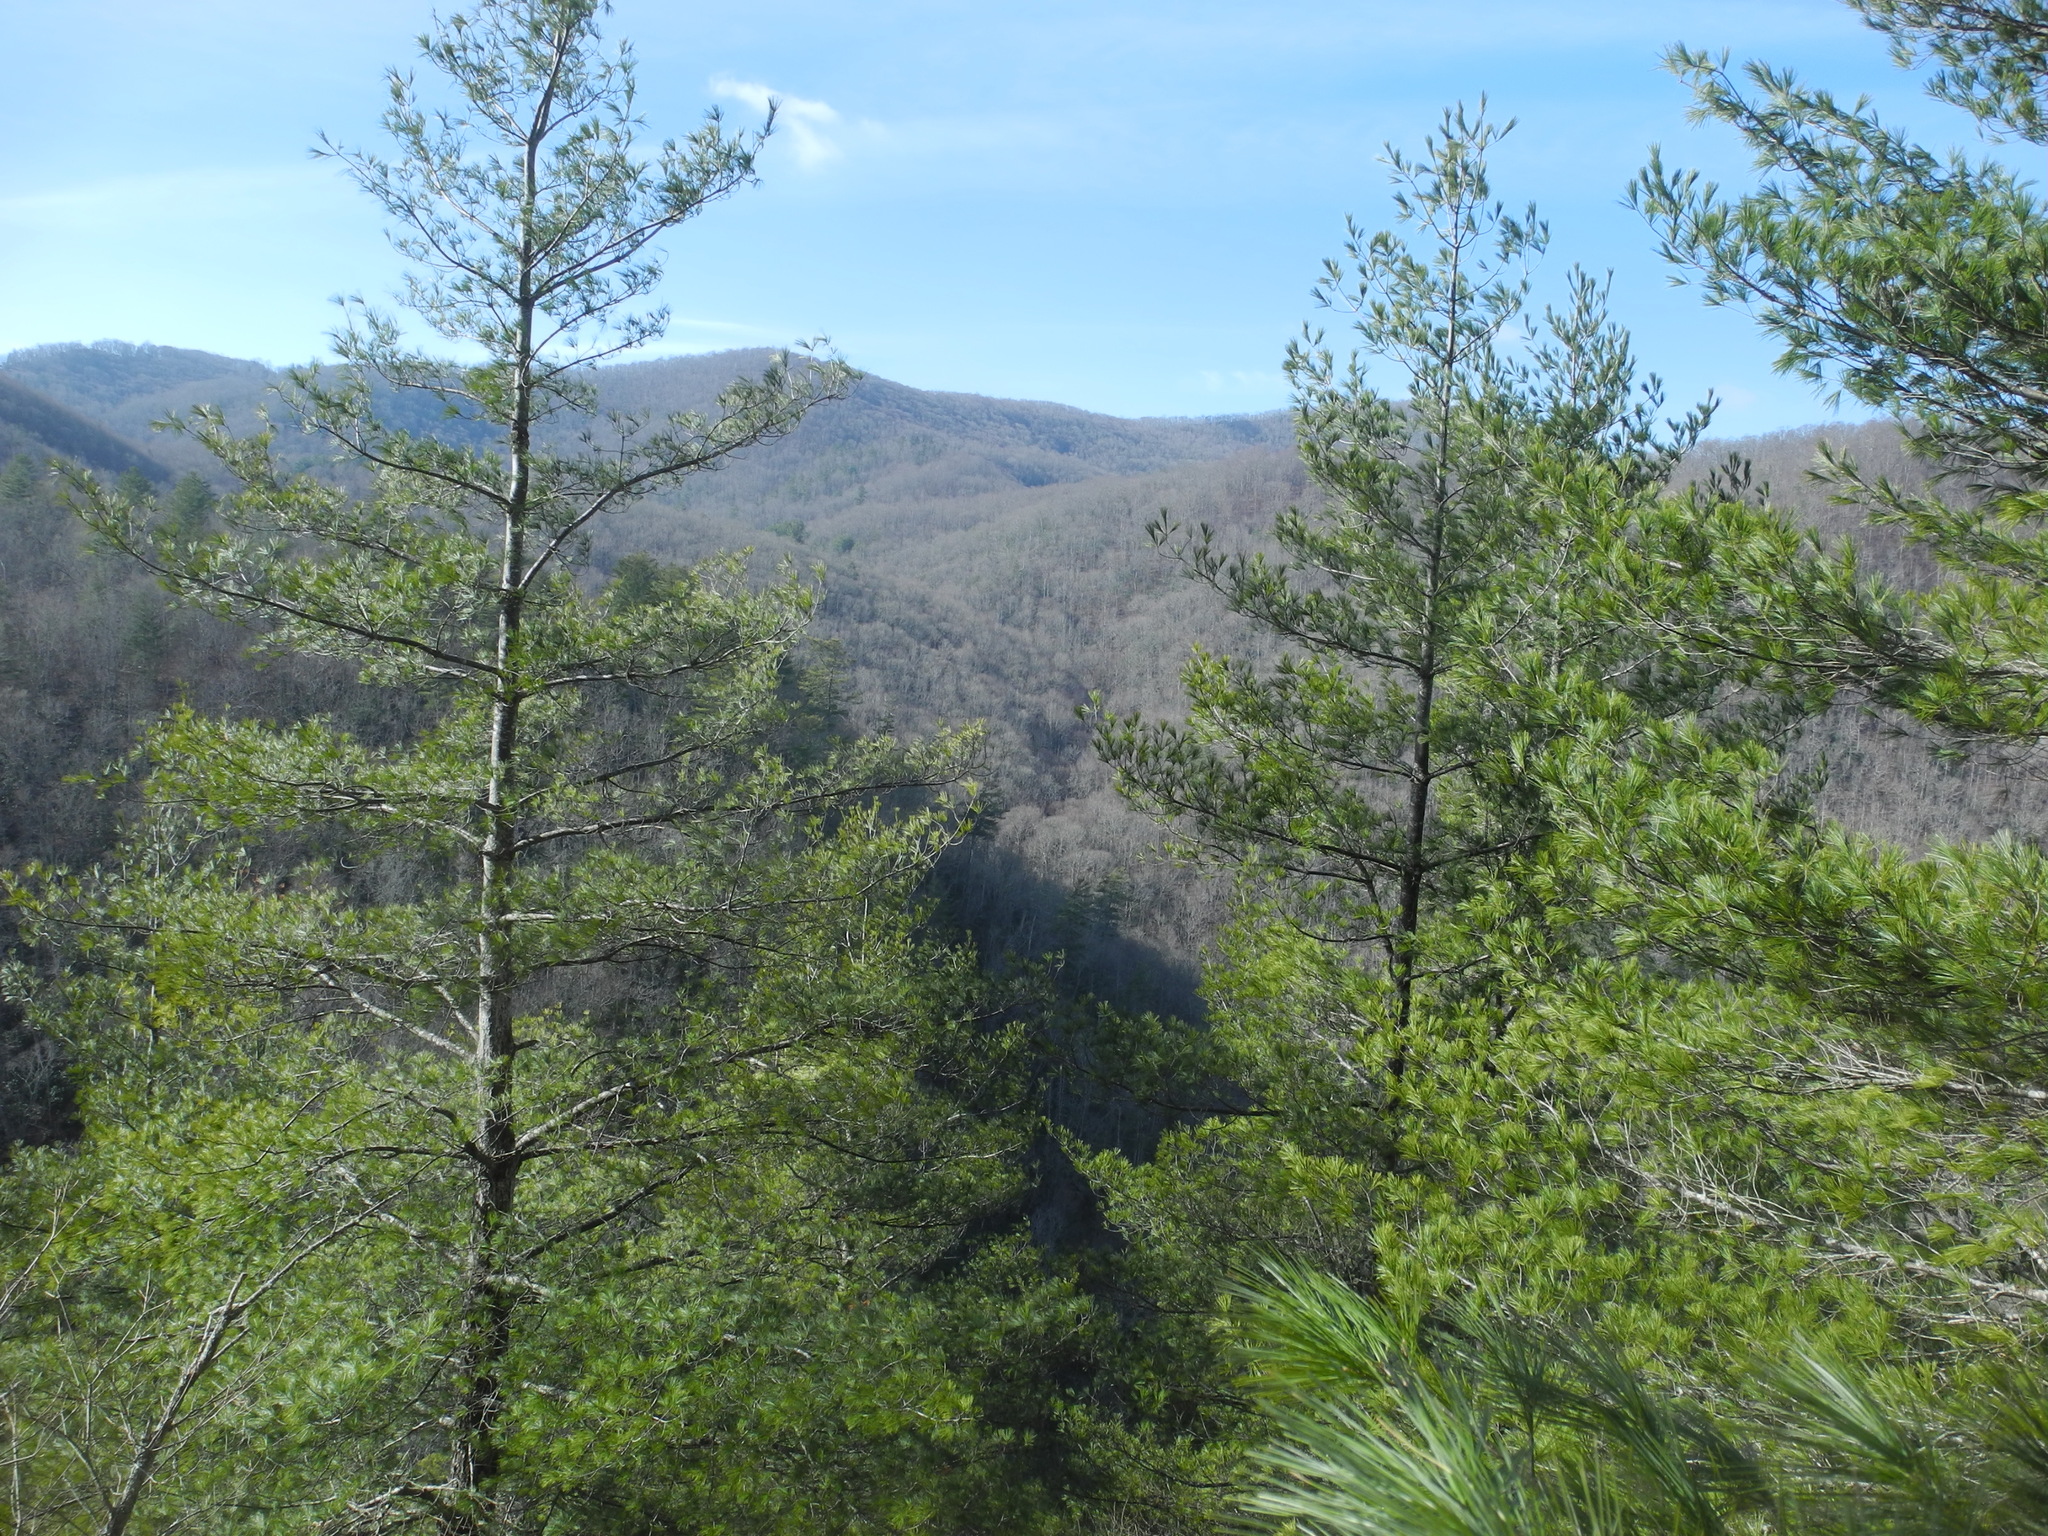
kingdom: Fungi
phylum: Ascomycota
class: Lecanoromycetes
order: Umbilicariales
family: Umbilicariaceae
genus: Lasallia
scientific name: Lasallia papulosa
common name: Common toadskin lichen
